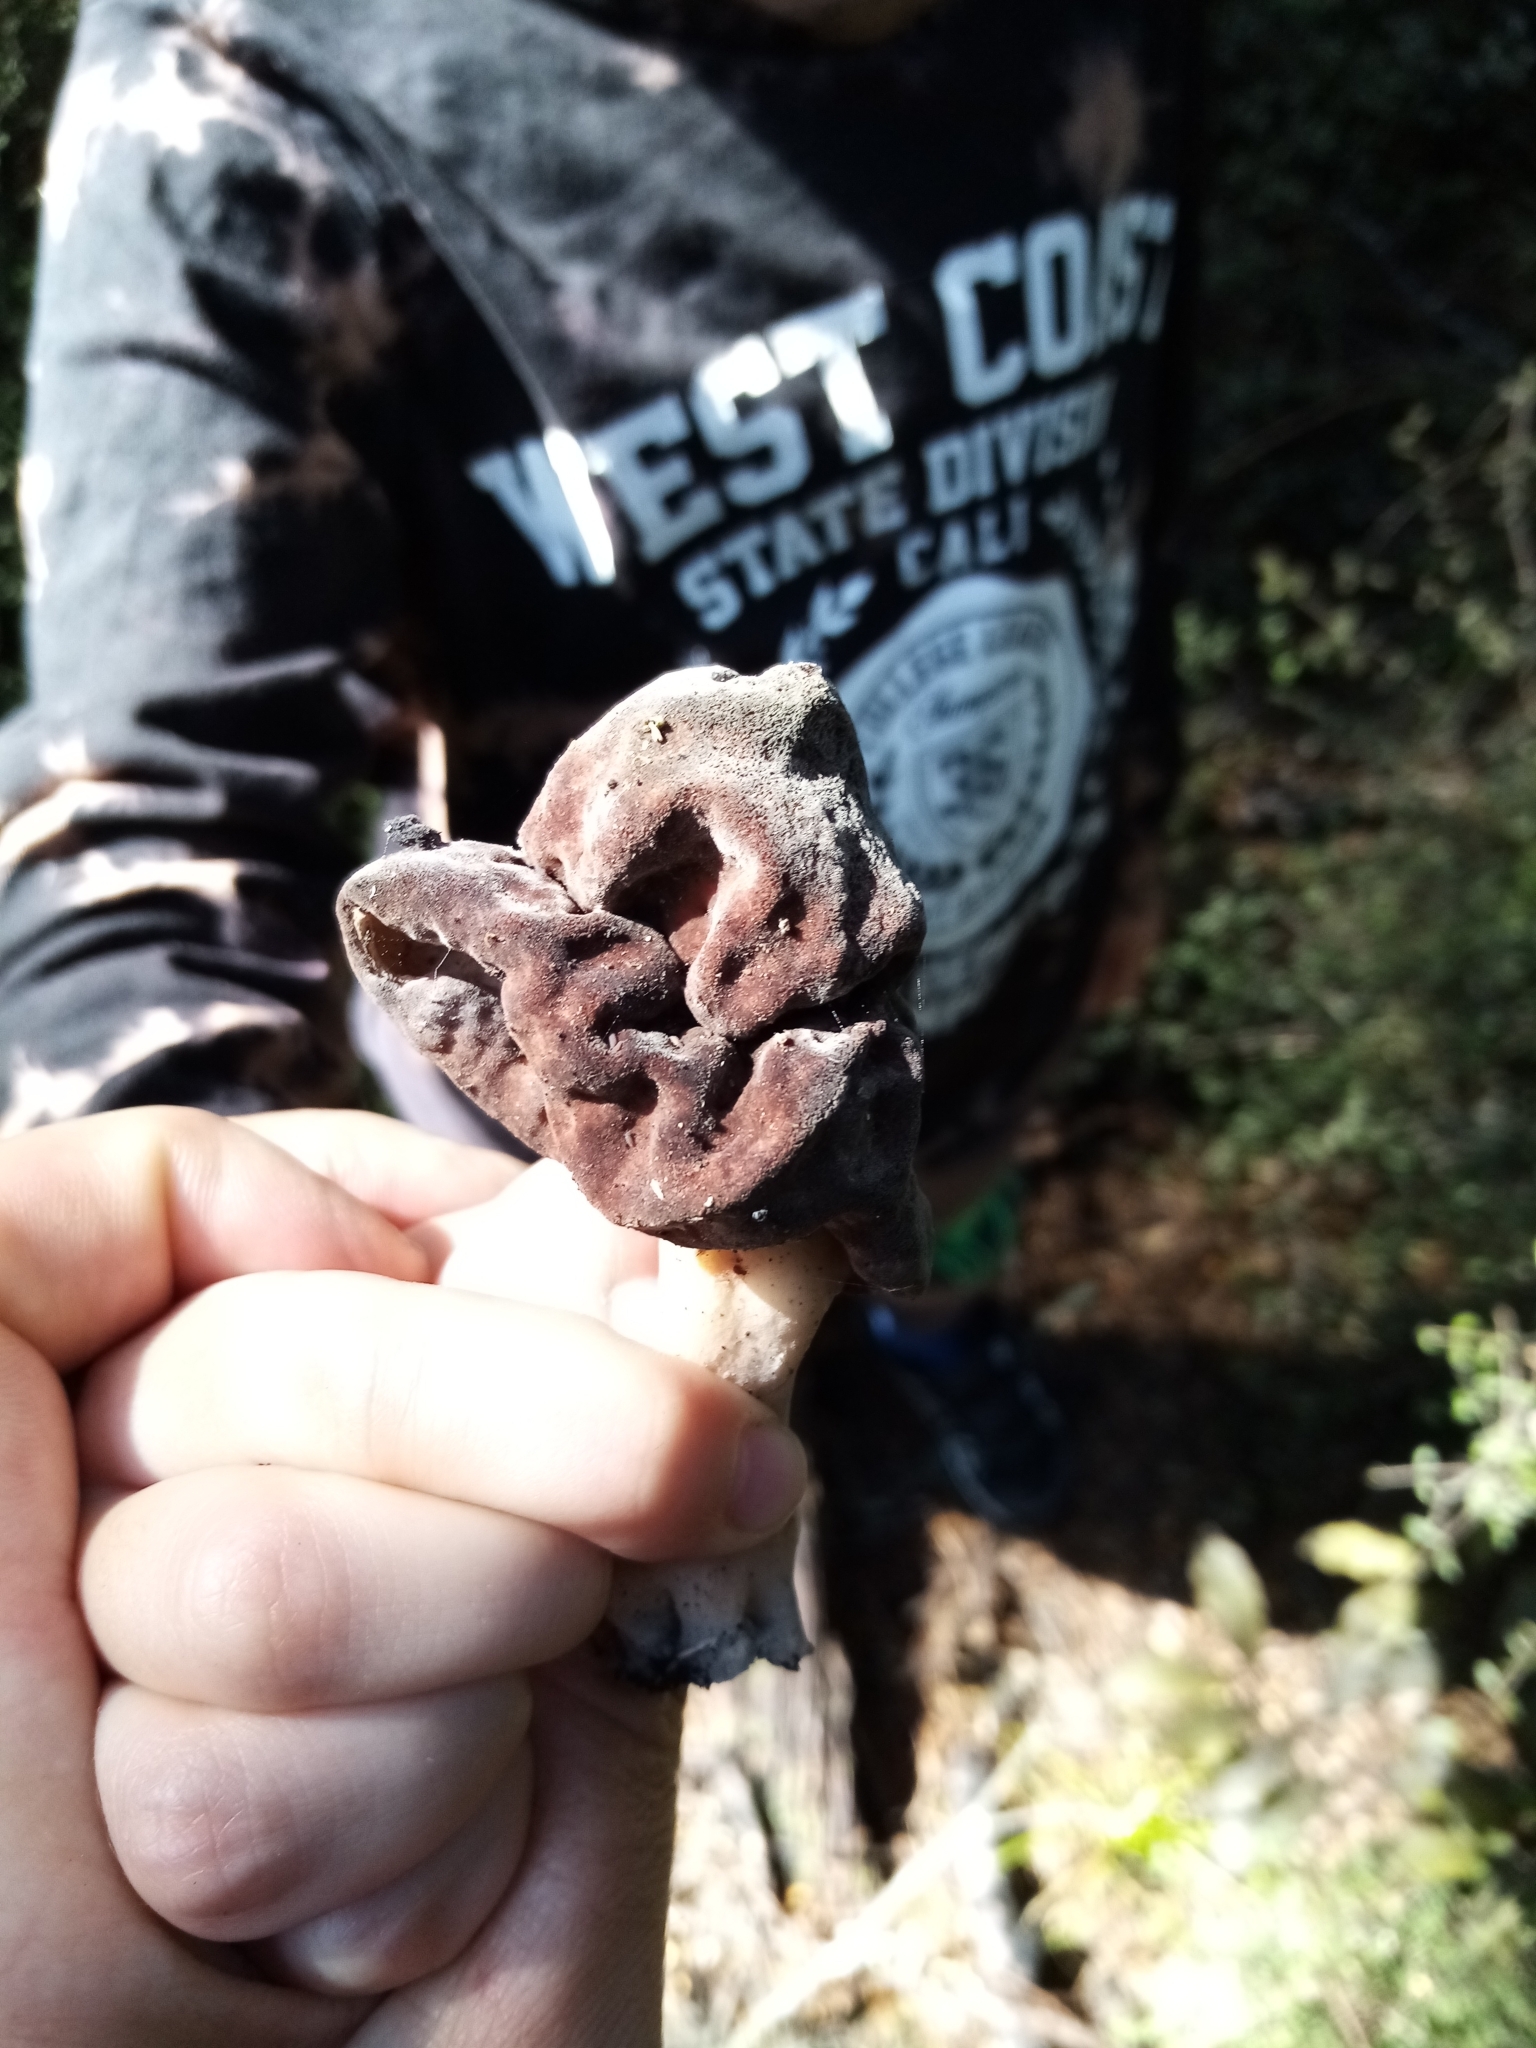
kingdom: Fungi
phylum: Ascomycota
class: Pezizomycetes
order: Pezizales
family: Discinaceae
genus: Gyromitra
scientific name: Gyromitra tasmanica
